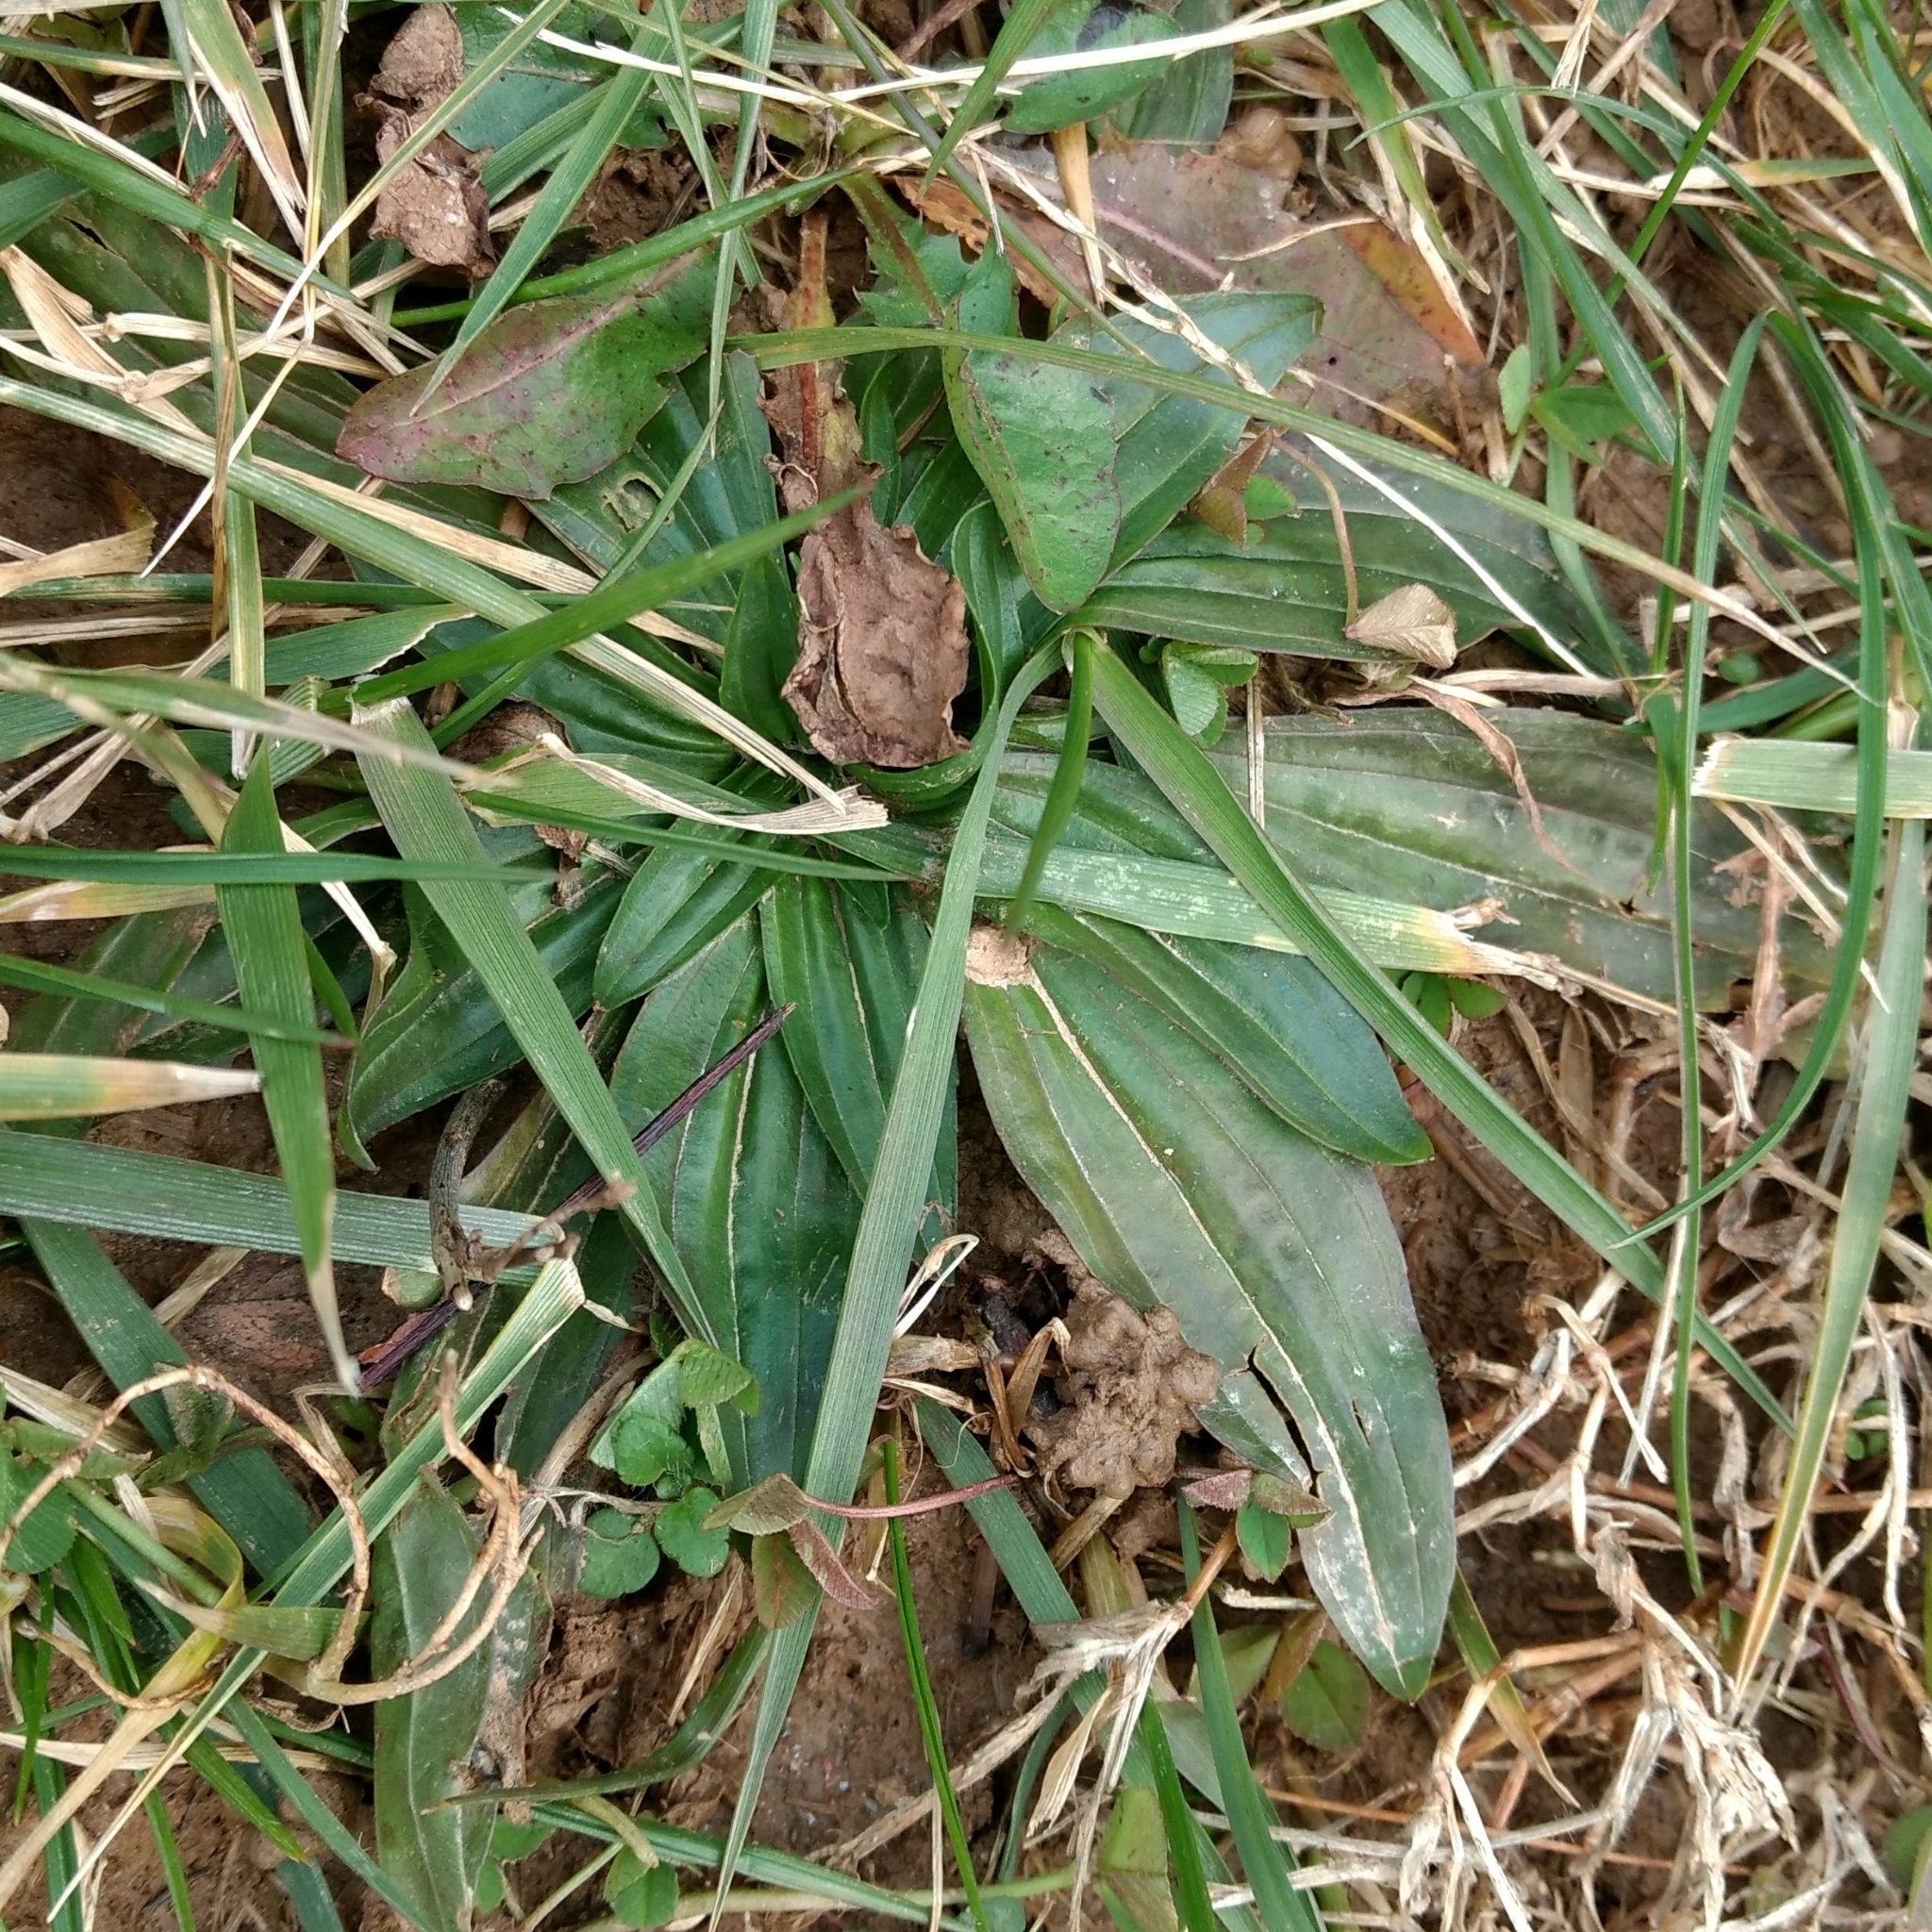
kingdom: Plantae
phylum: Tracheophyta
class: Magnoliopsida
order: Lamiales
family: Plantaginaceae
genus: Plantago
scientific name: Plantago lanceolata
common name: Ribwort plantain
